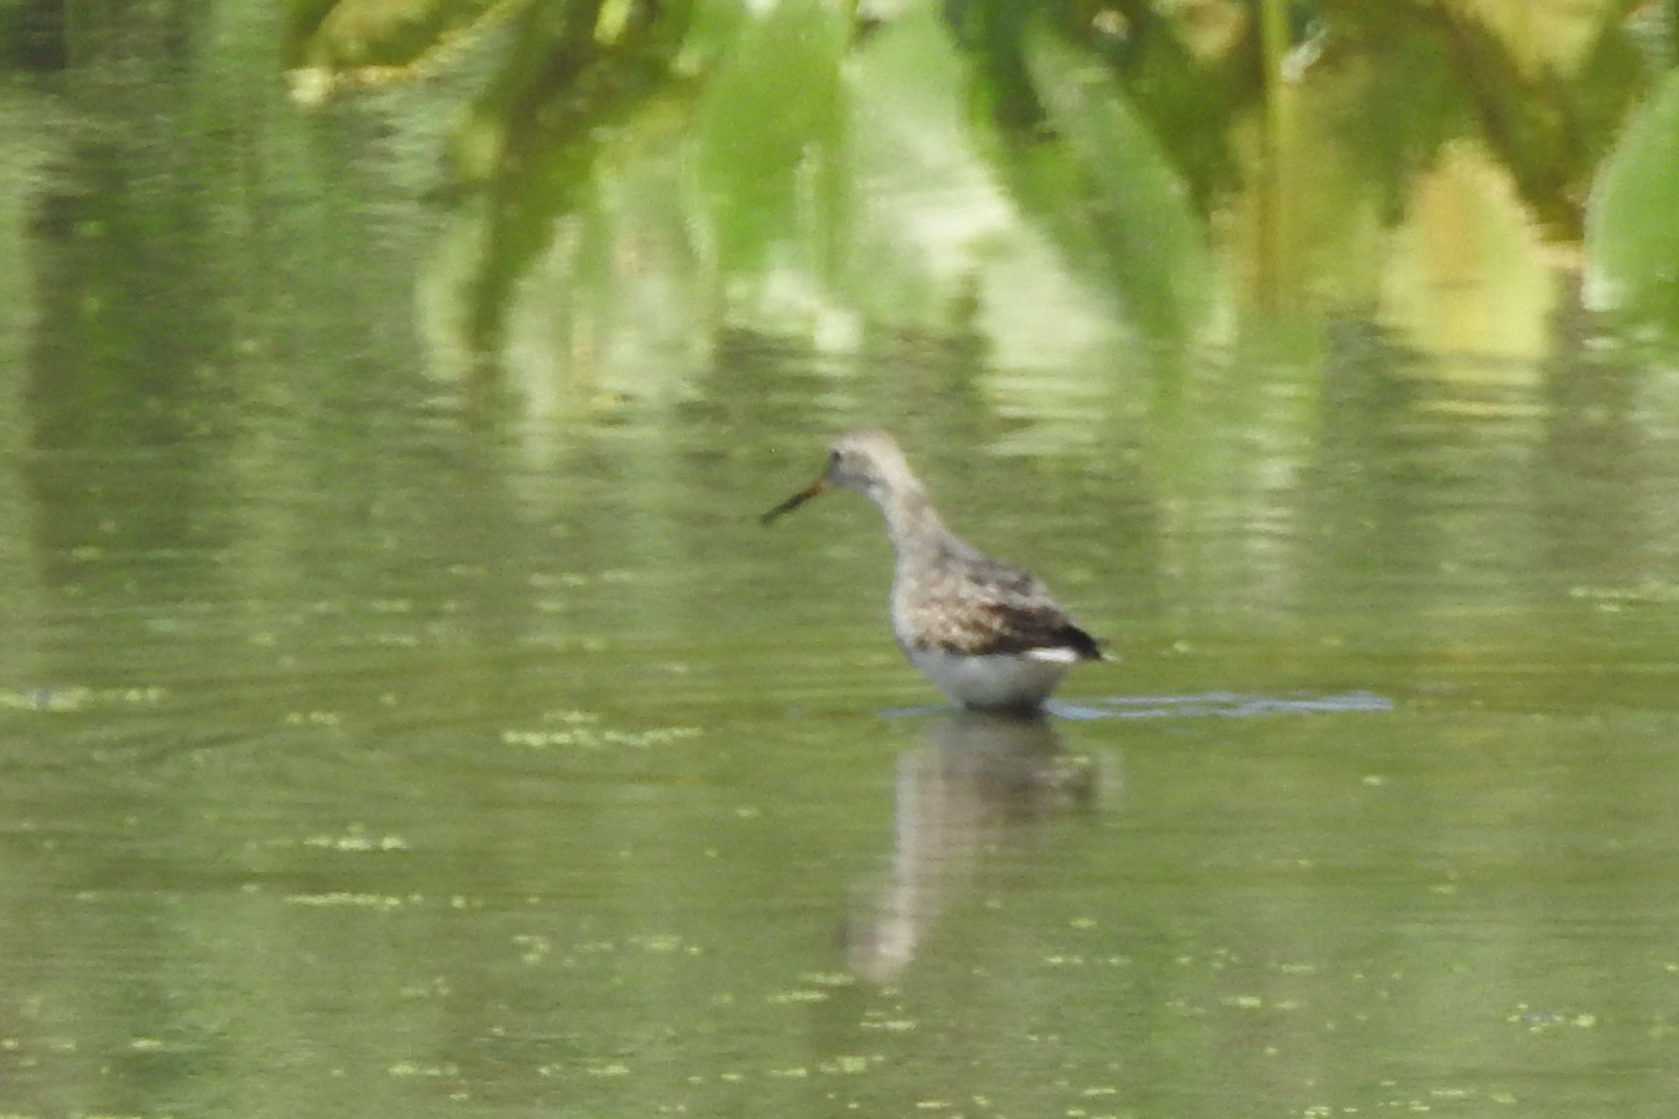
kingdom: Animalia
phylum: Chordata
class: Aves
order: Charadriiformes
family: Scolopacidae
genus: Tringa
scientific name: Tringa melanoleuca
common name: Greater yellowlegs
